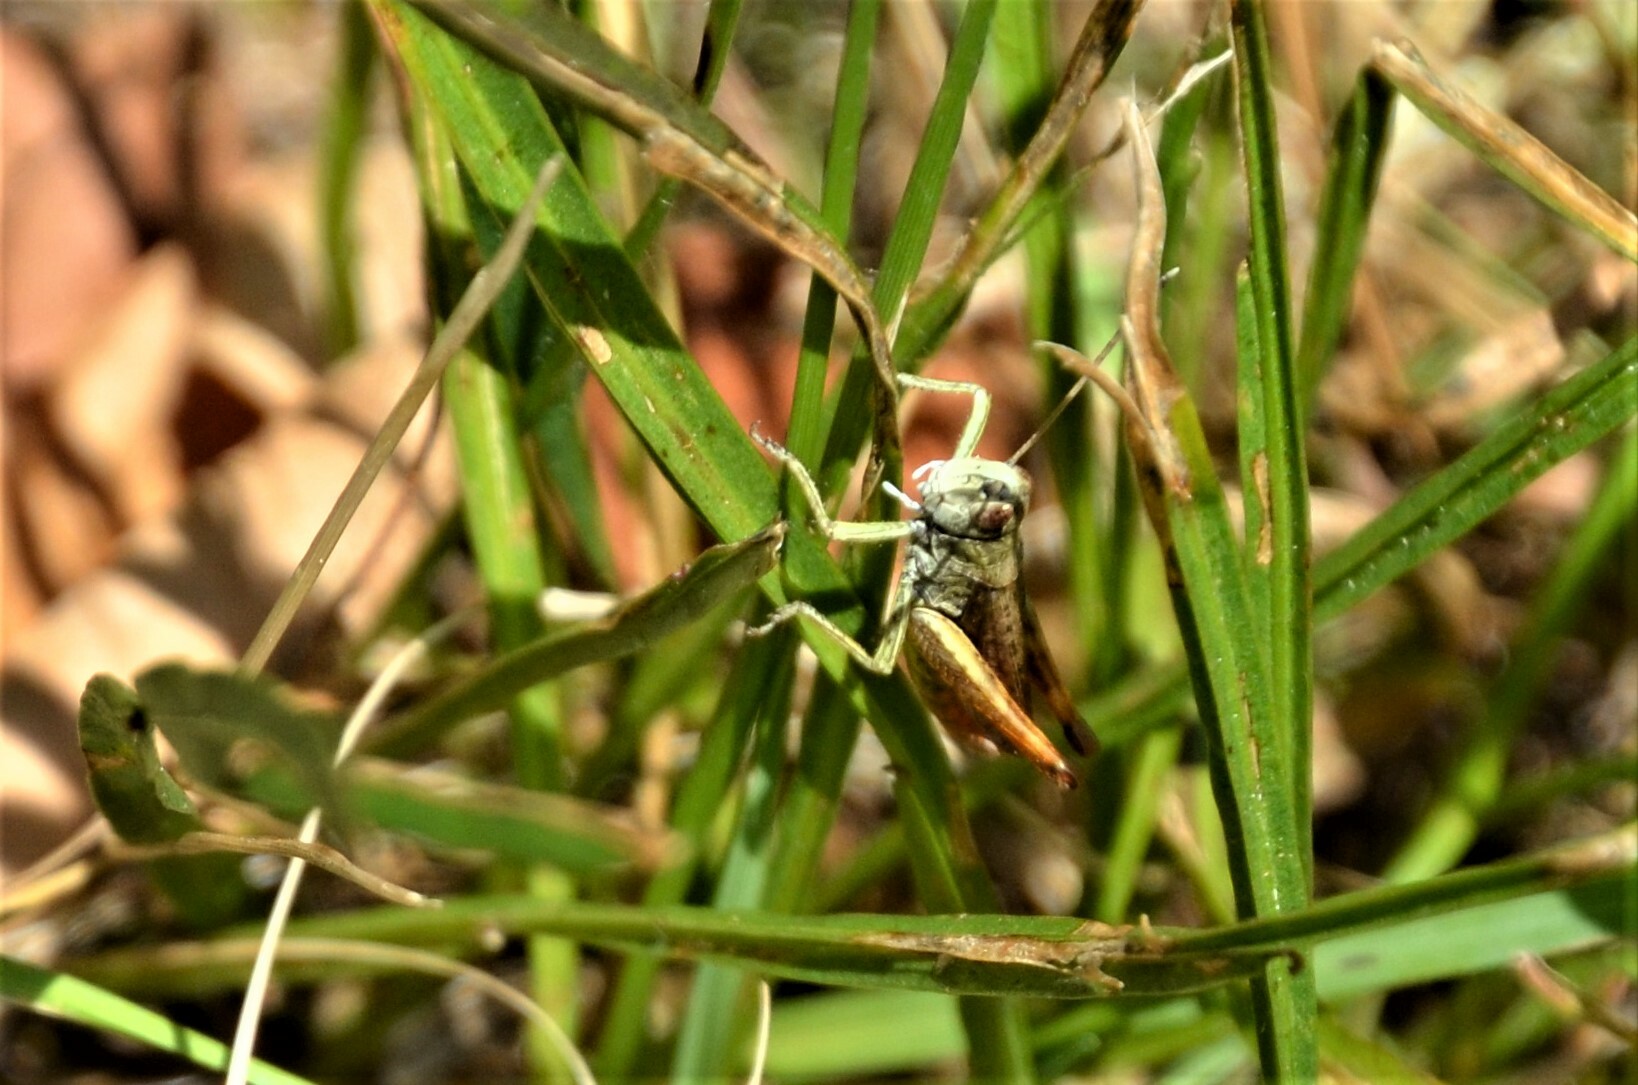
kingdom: Animalia
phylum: Arthropoda
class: Insecta
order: Orthoptera
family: Acrididae
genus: Gomphocerippus
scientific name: Gomphocerippus rufus
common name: Rufous grasshopper
